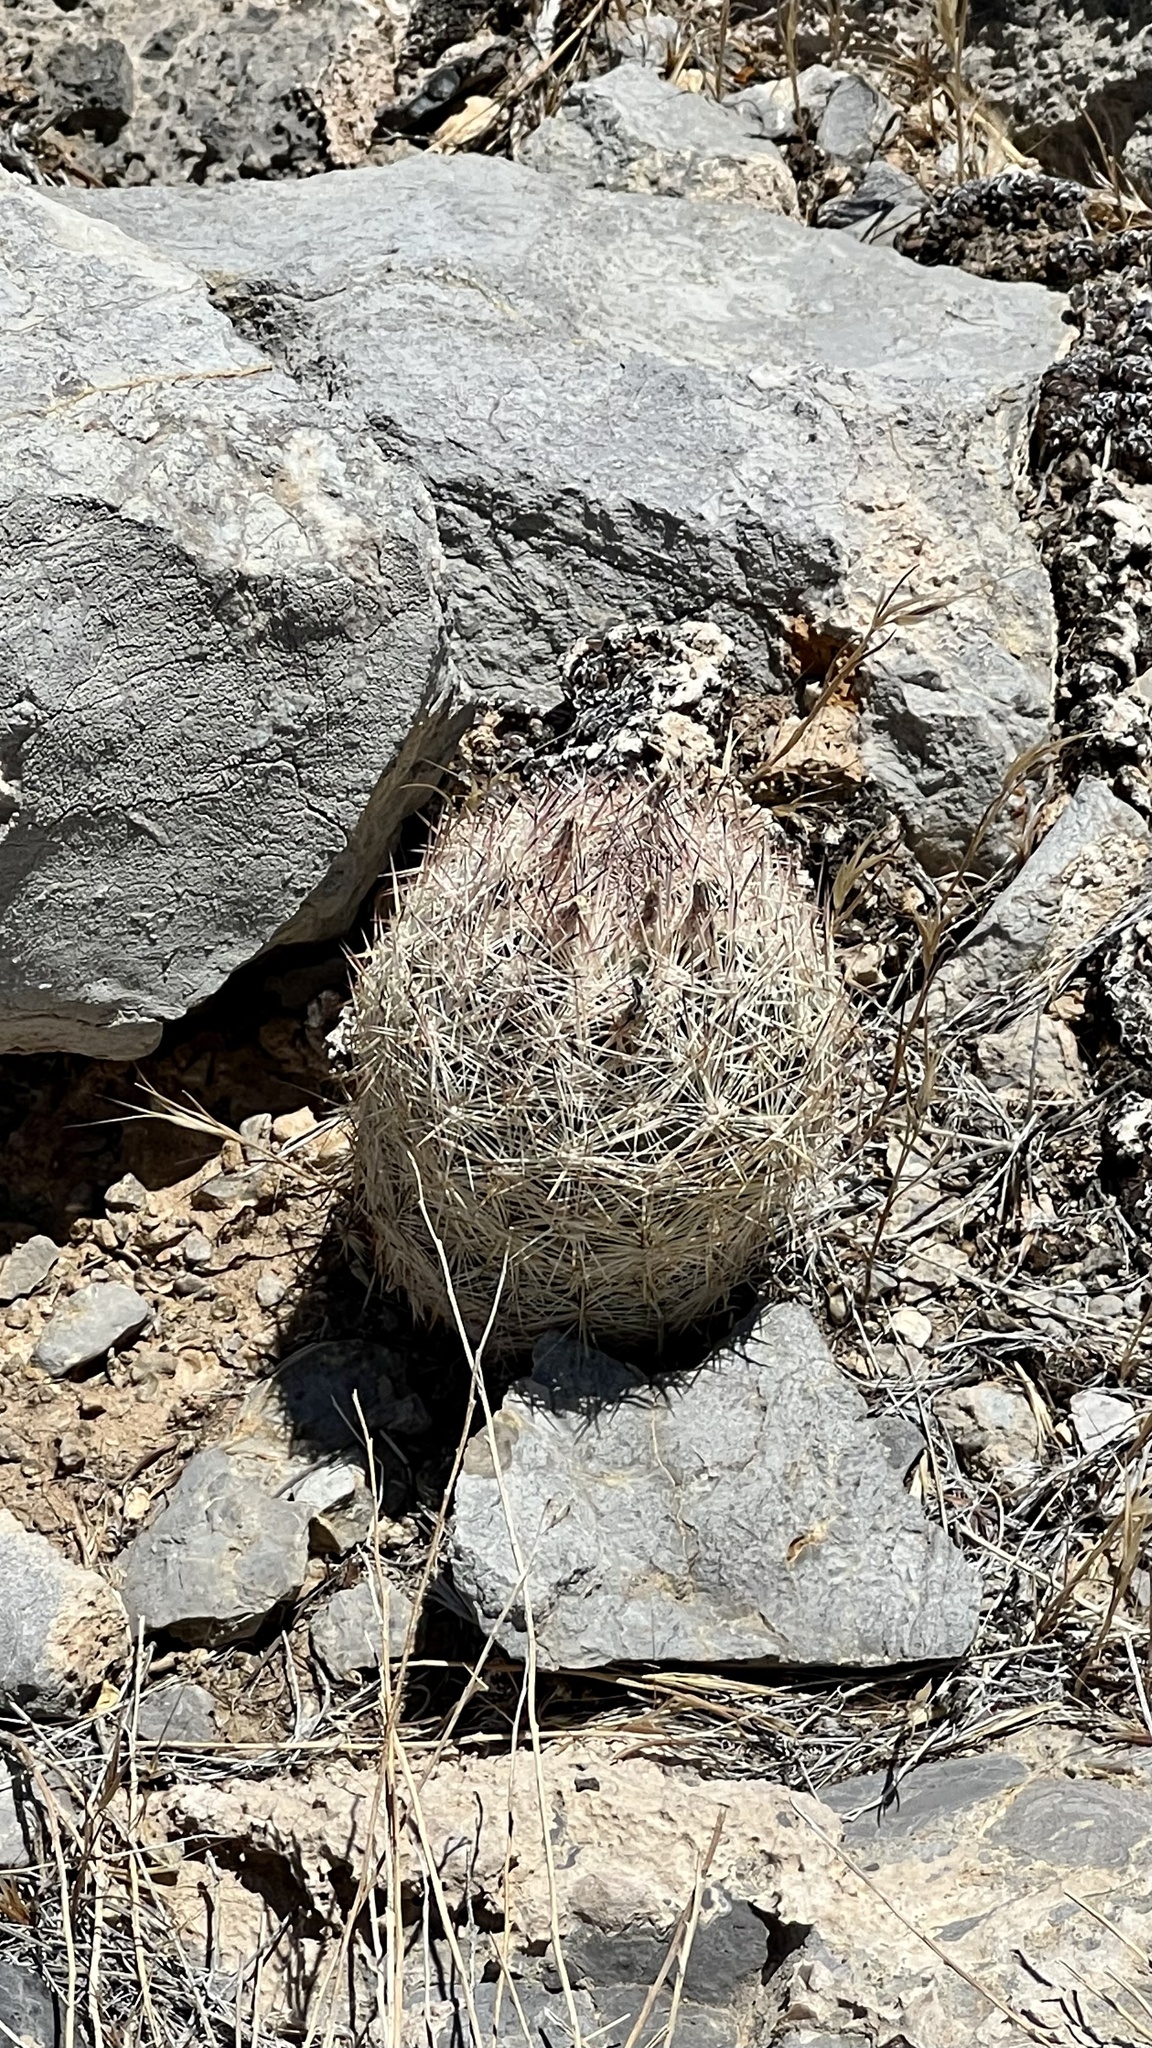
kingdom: Plantae
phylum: Tracheophyta
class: Magnoliopsida
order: Caryophyllales
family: Cactaceae
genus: Pelecyphora
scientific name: Pelecyphora dasyacantha
